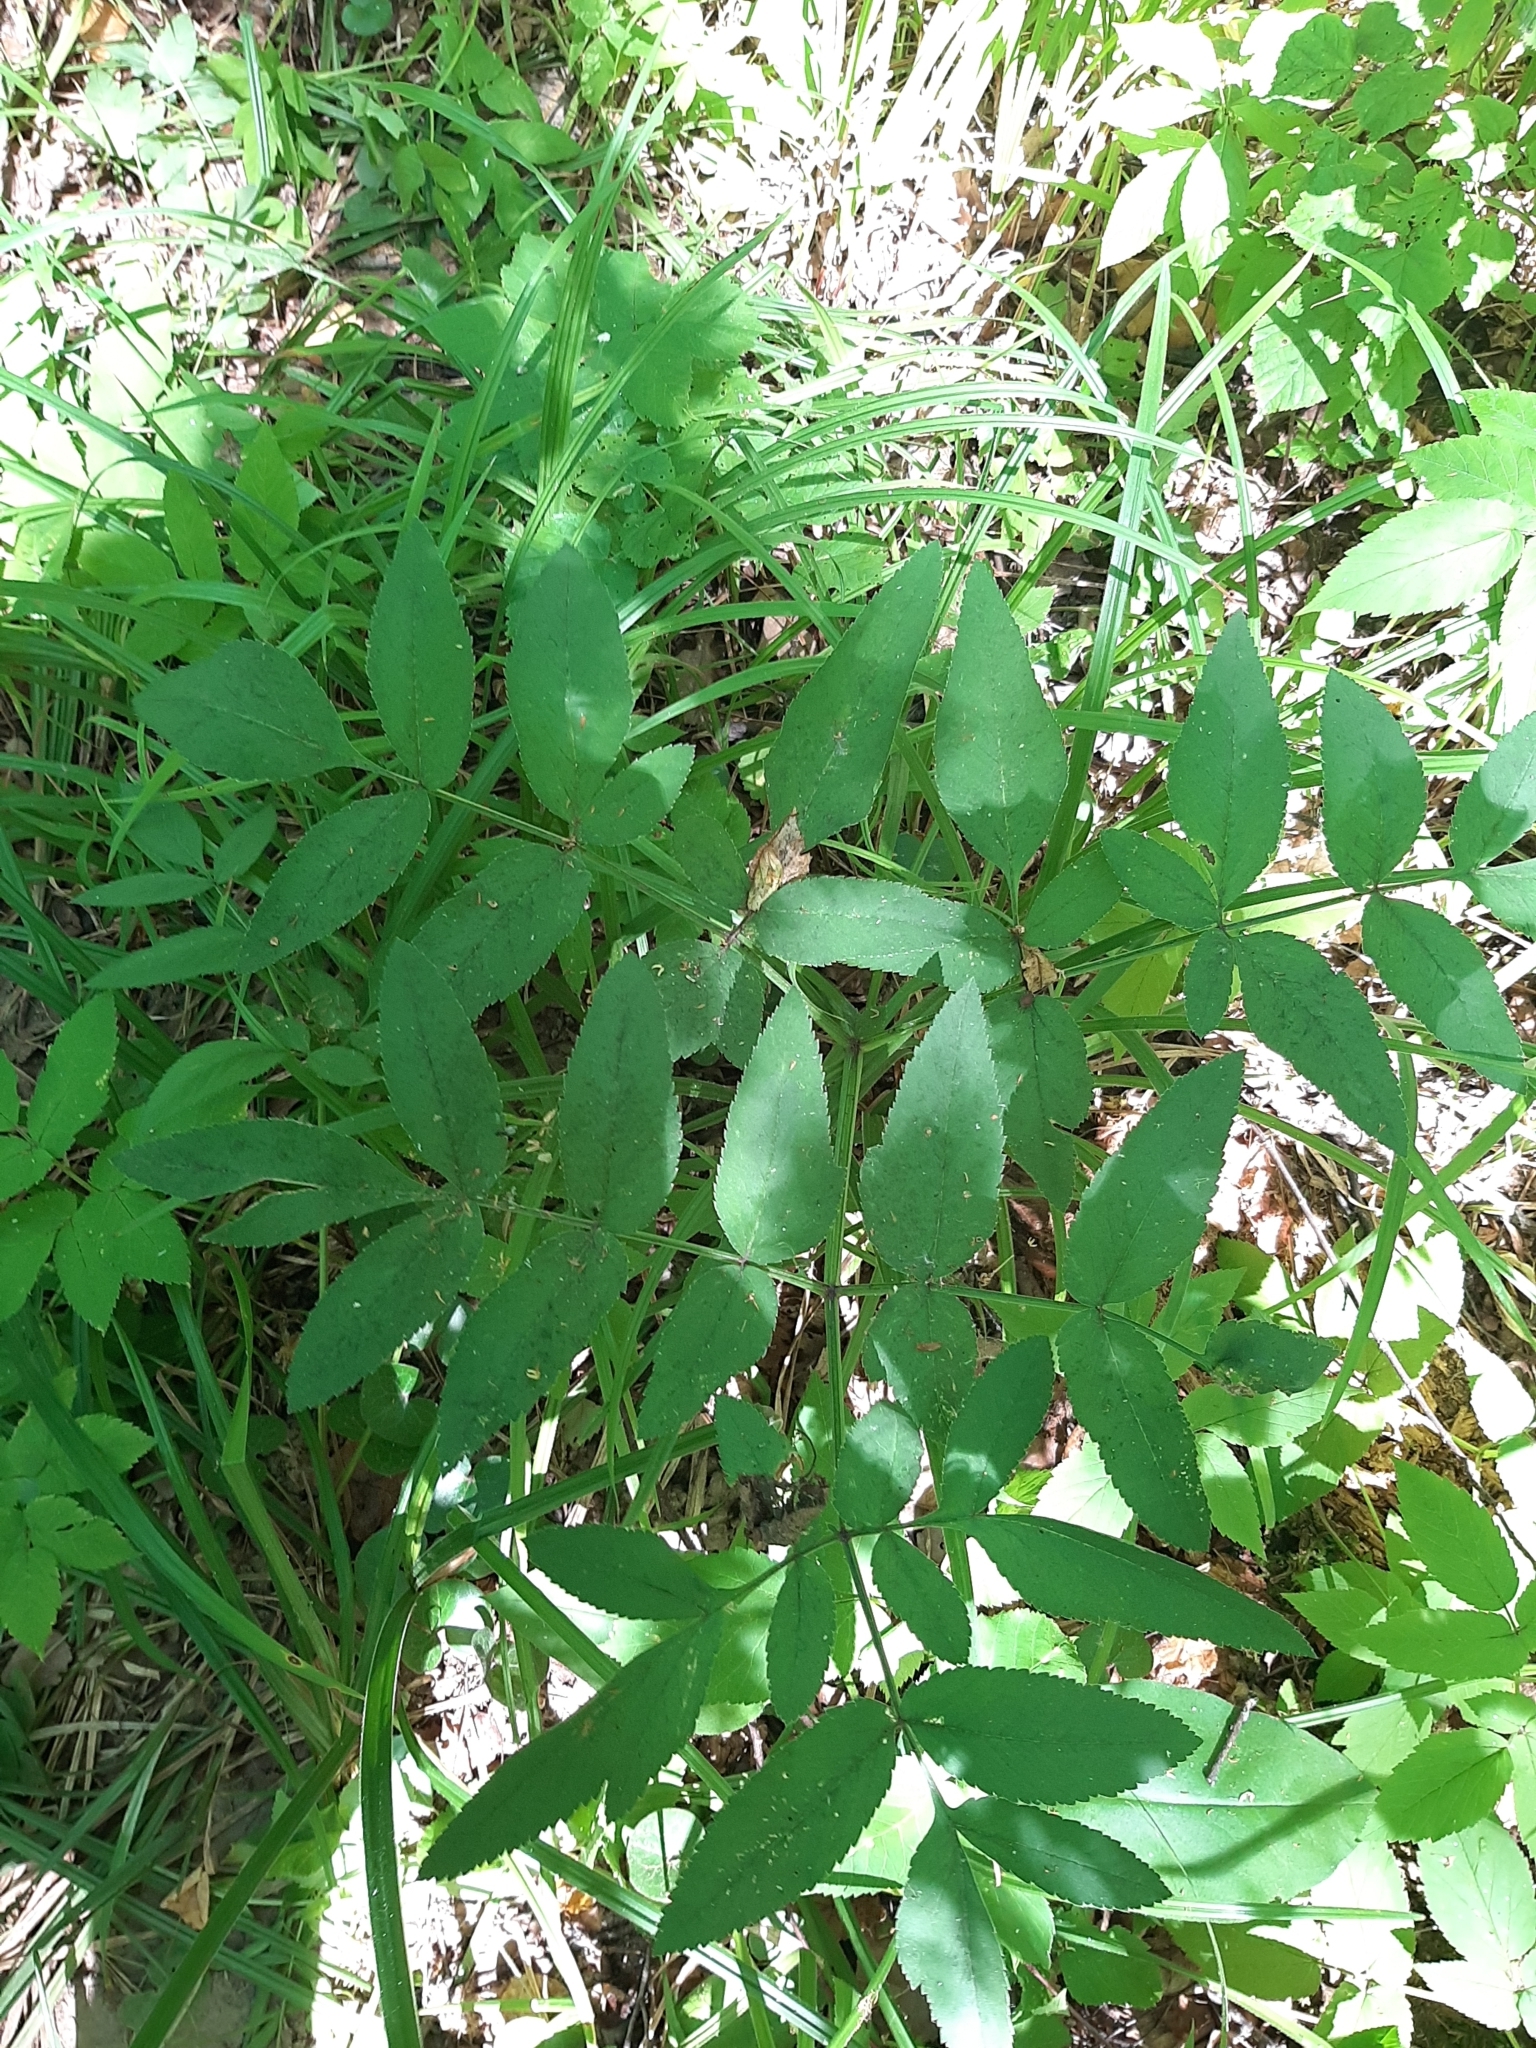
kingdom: Plantae
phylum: Tracheophyta
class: Magnoliopsida
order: Apiales
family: Apiaceae
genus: Angelica
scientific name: Angelica sylvestris
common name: Wild angelica
